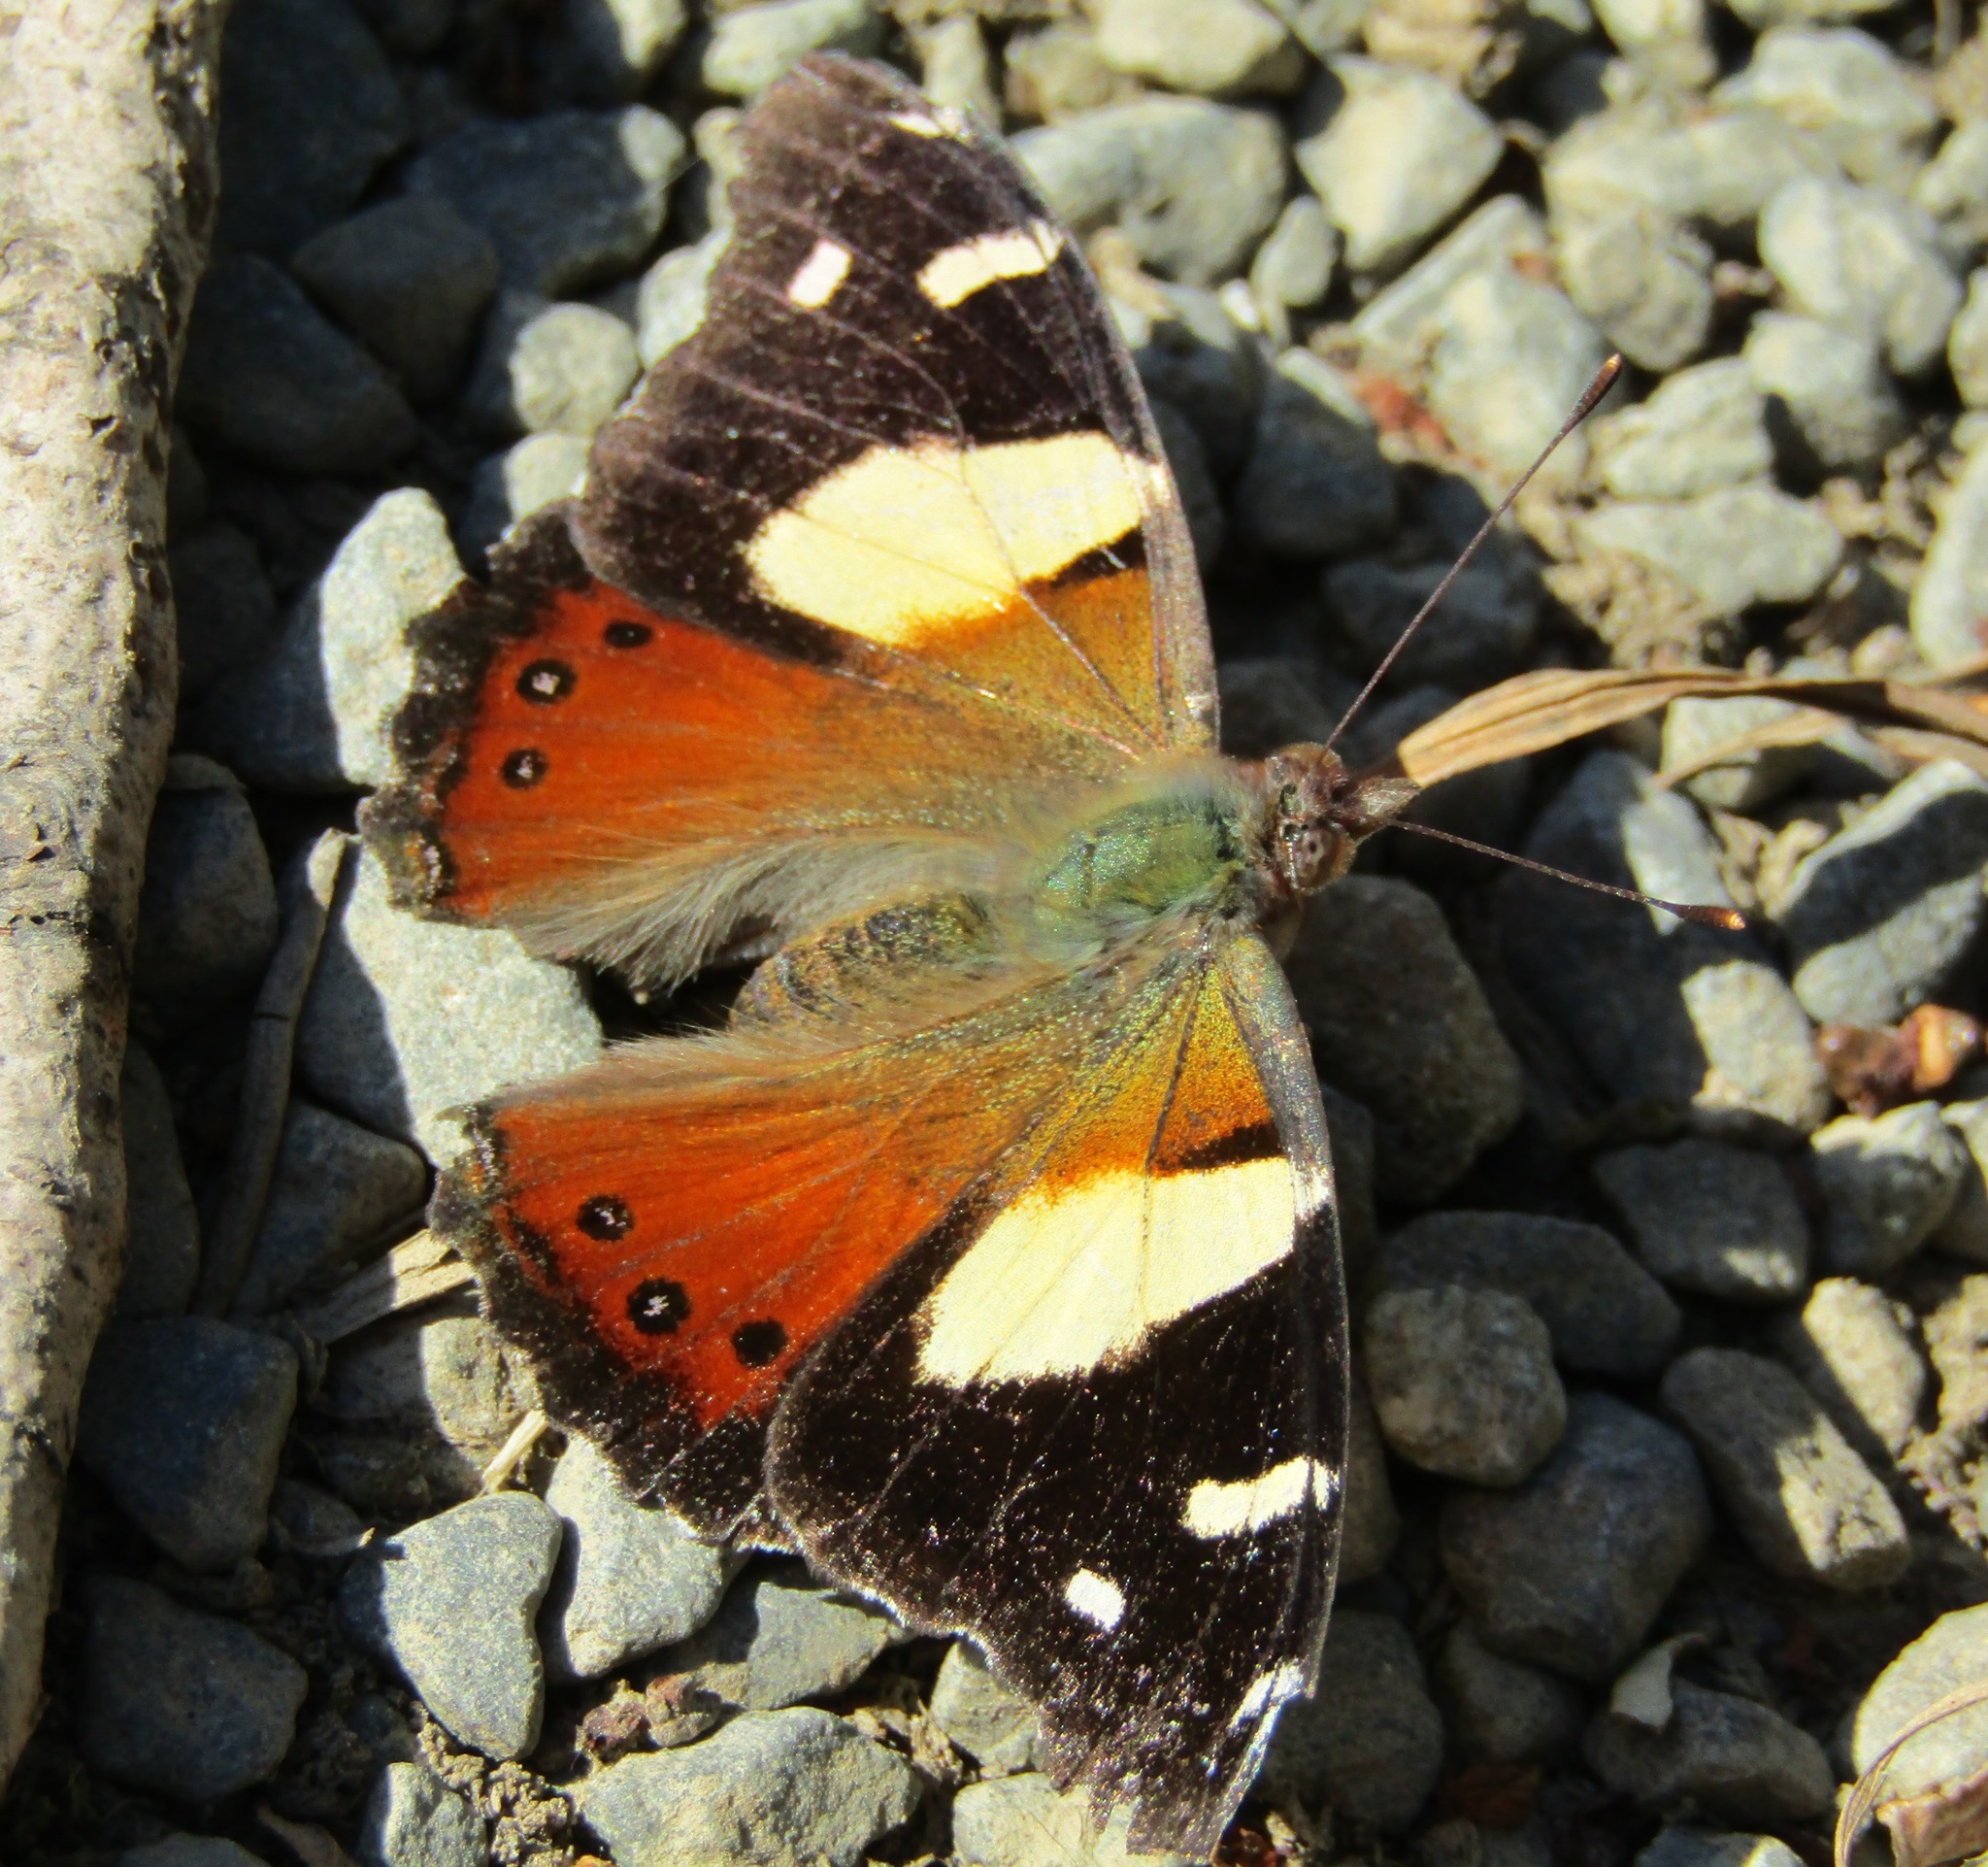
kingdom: Animalia
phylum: Arthropoda
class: Insecta
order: Lepidoptera
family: Nymphalidae
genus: Vanessa
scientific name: Vanessa itea
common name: Yellow admiral
